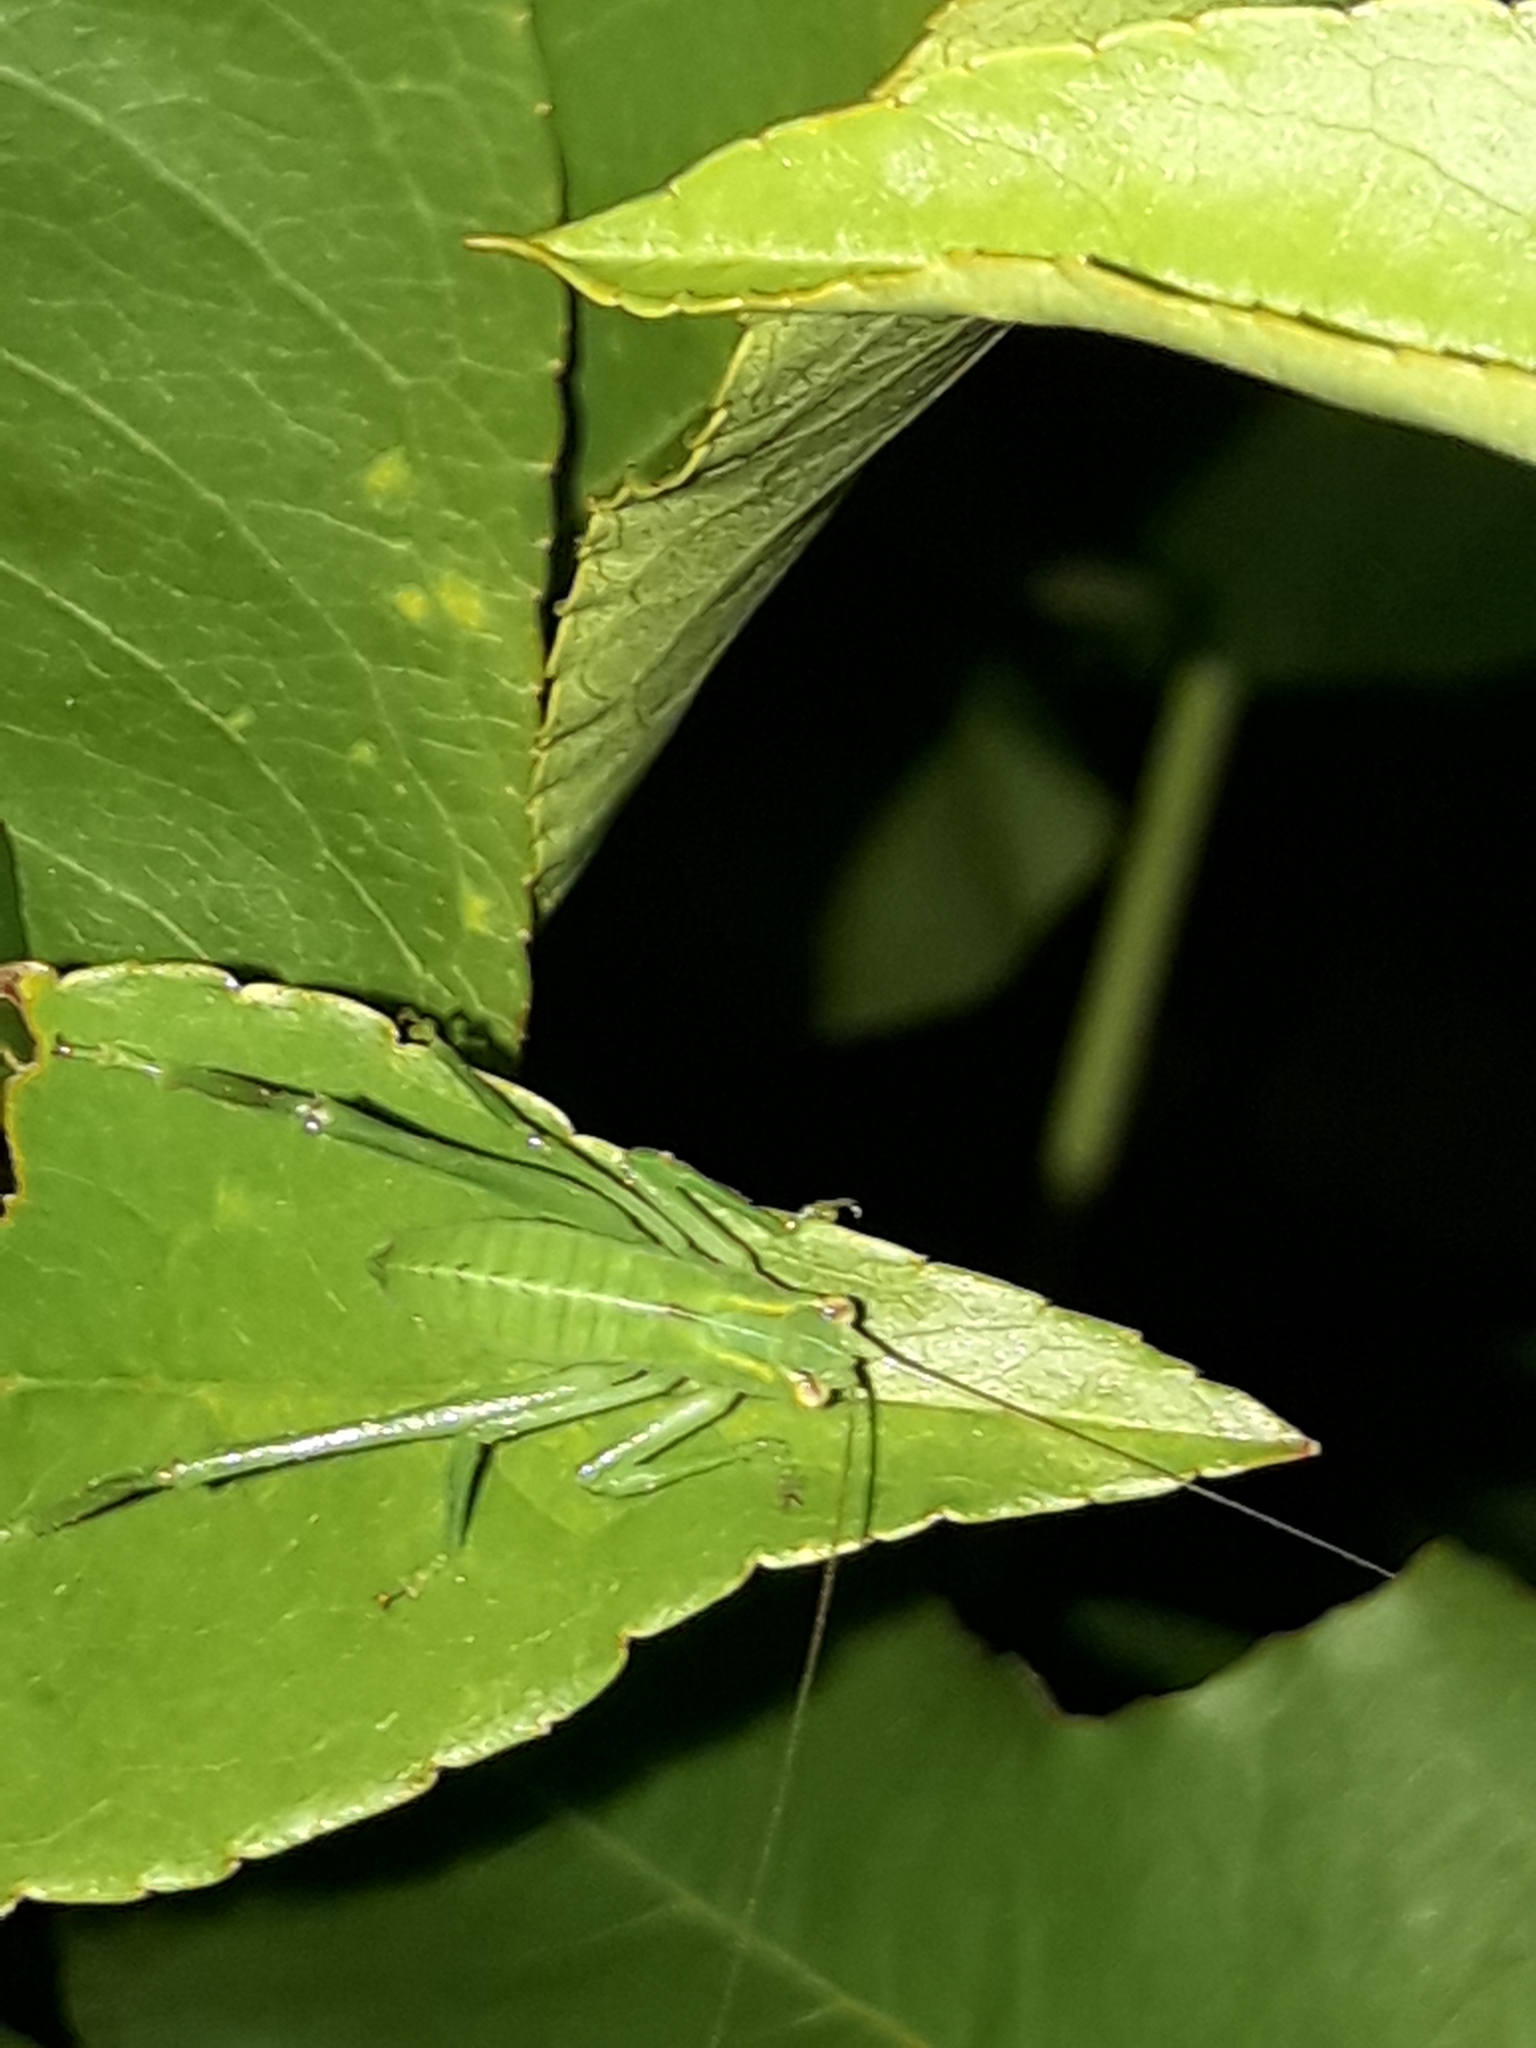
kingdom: Animalia
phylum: Arthropoda
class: Insecta
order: Orthoptera
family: Tettigoniidae
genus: Caedicia
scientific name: Caedicia simplex
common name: Common garden katydid
